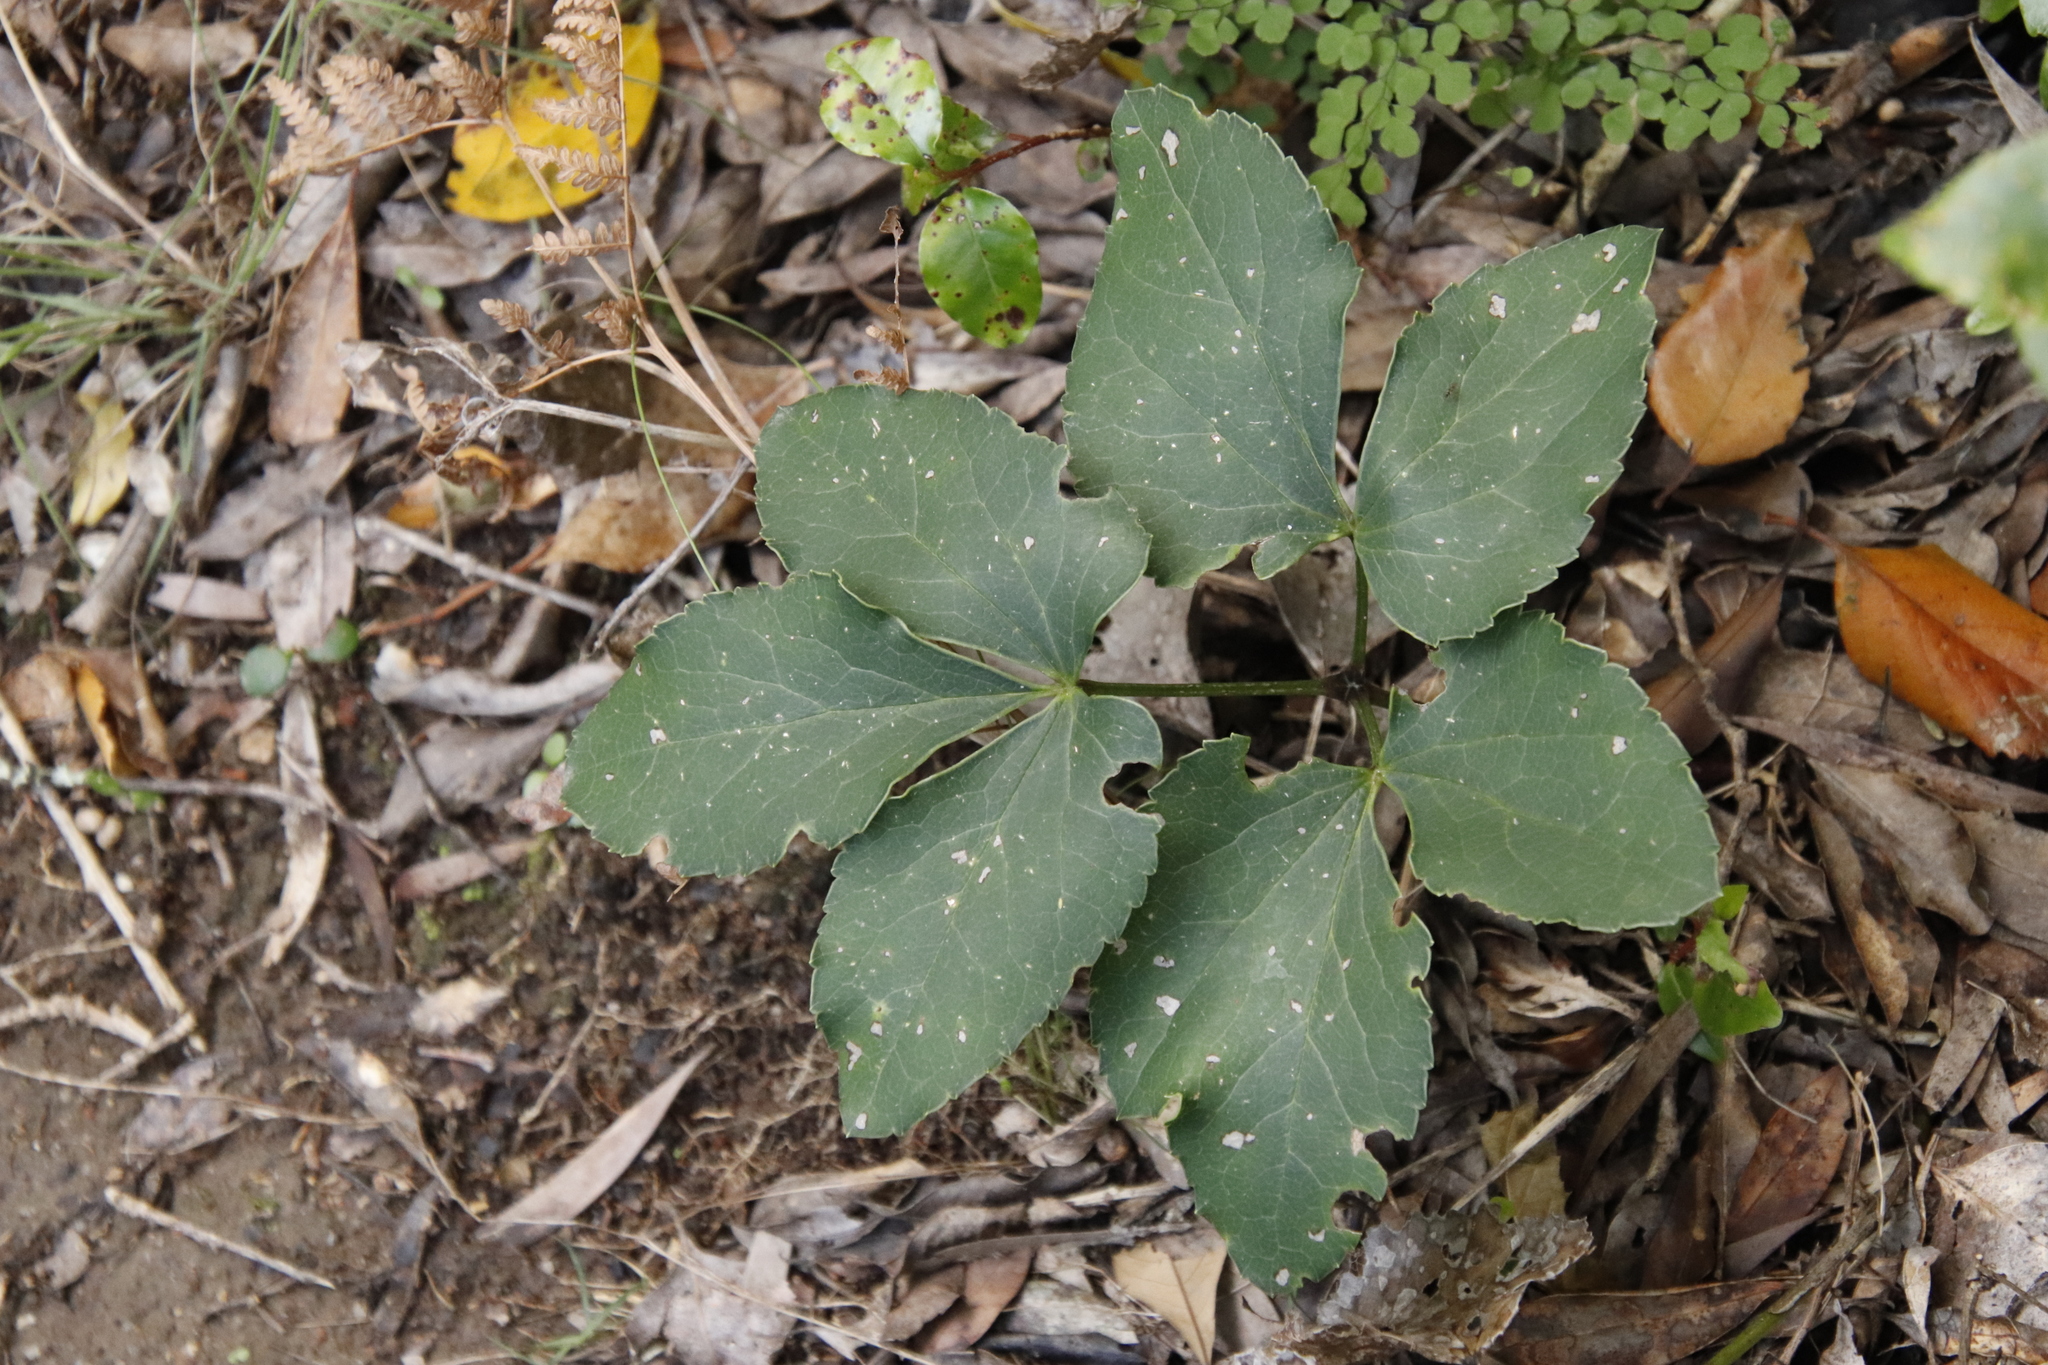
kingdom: Plantae
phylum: Tracheophyta
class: Magnoliopsida
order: Ranunculales
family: Ranunculaceae
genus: Knowltonia
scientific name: Knowltonia vesicatoria
